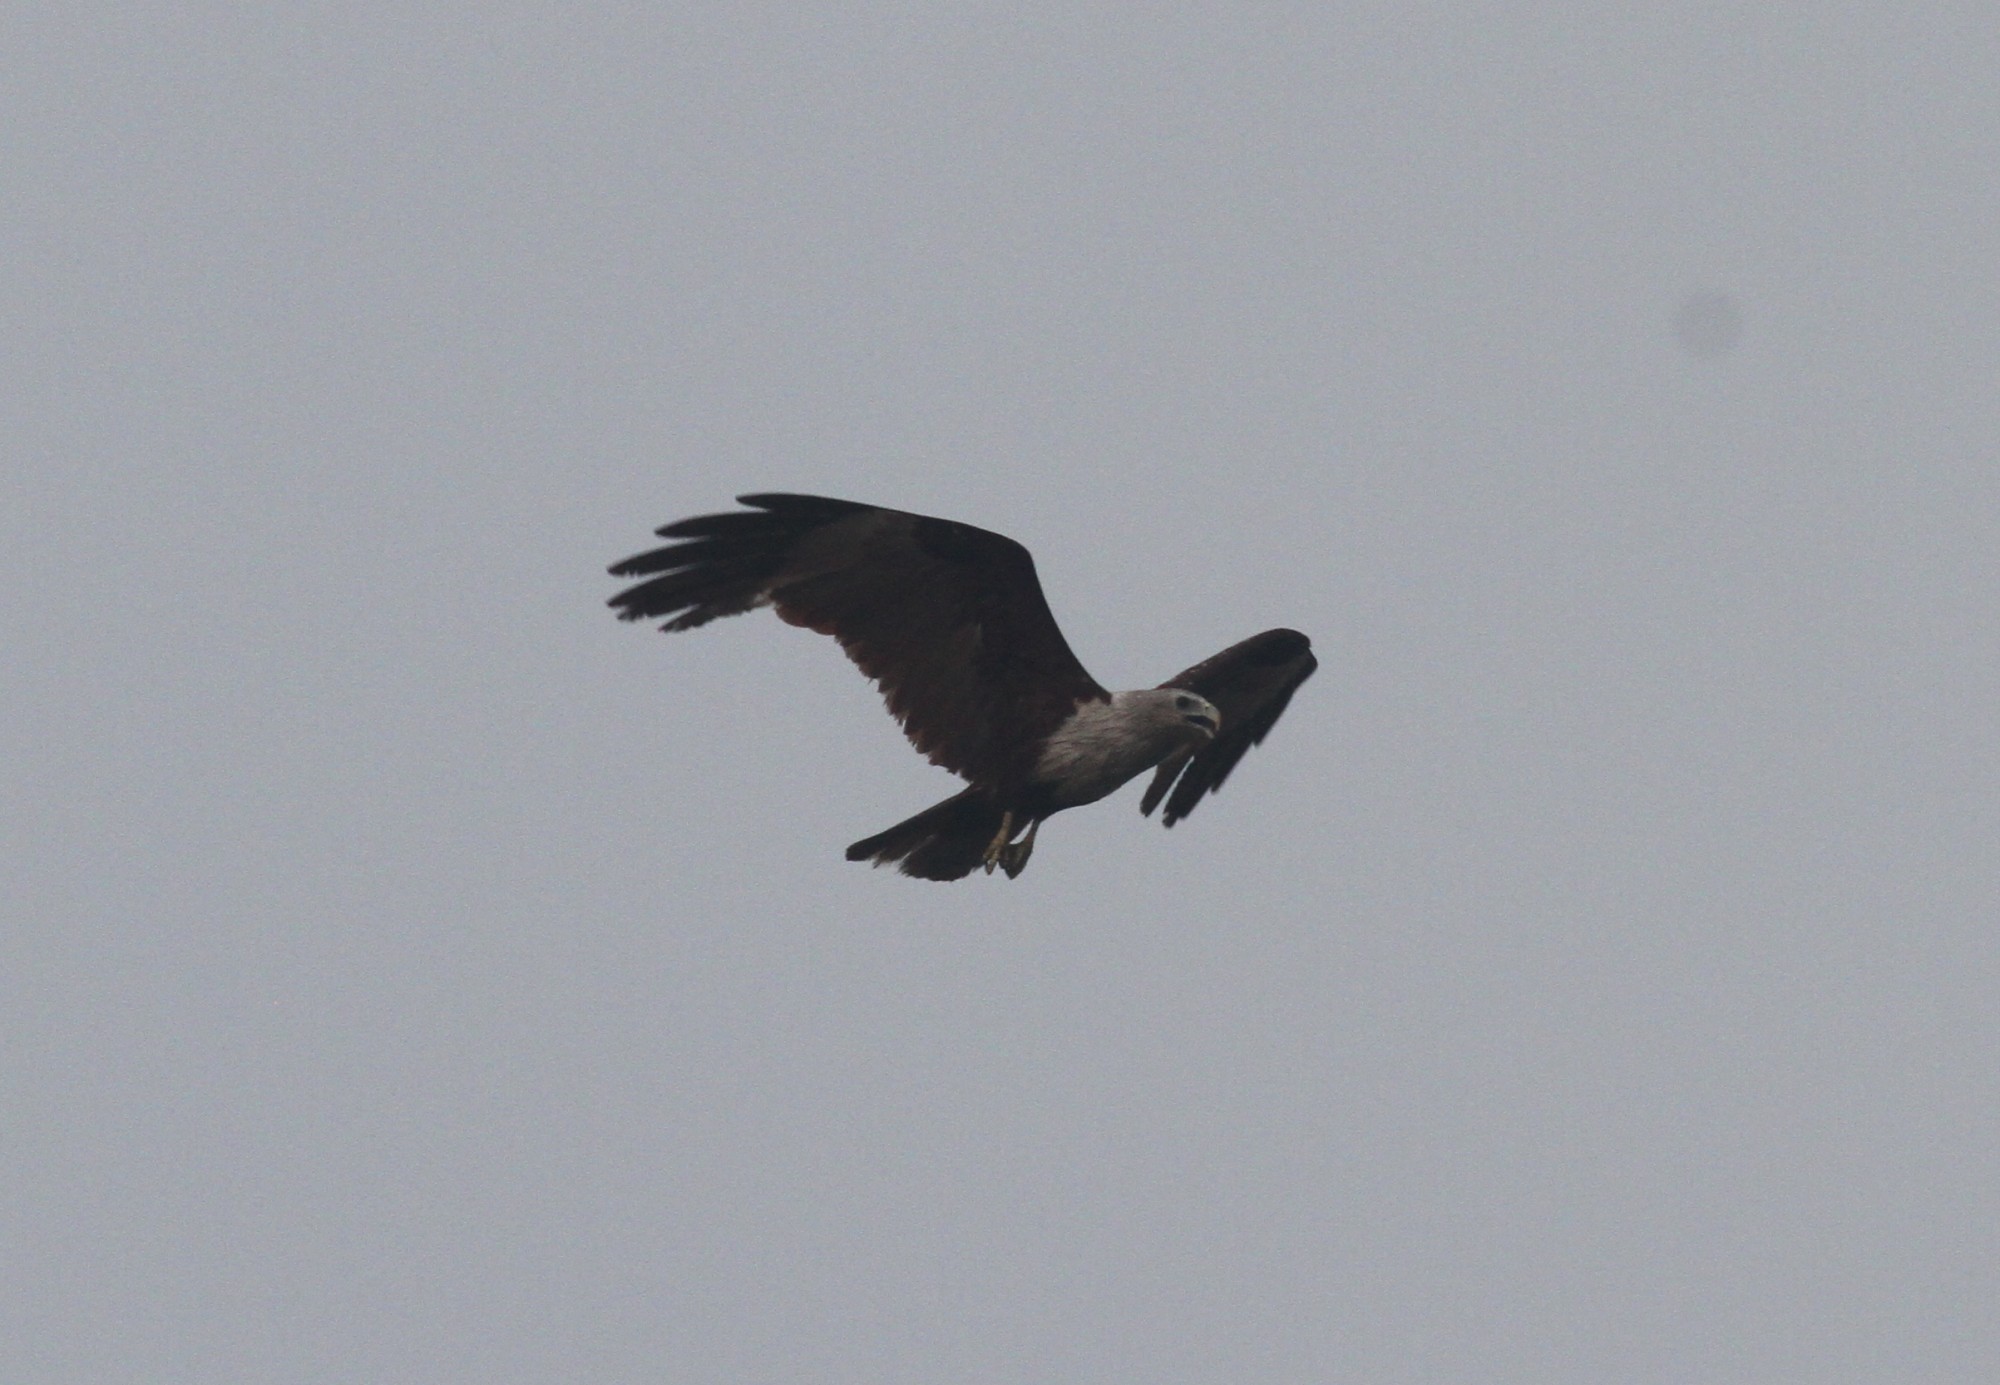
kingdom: Animalia
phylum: Chordata
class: Aves
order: Accipitriformes
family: Accipitridae
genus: Haliastur
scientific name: Haliastur indus
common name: Brahminy kite
